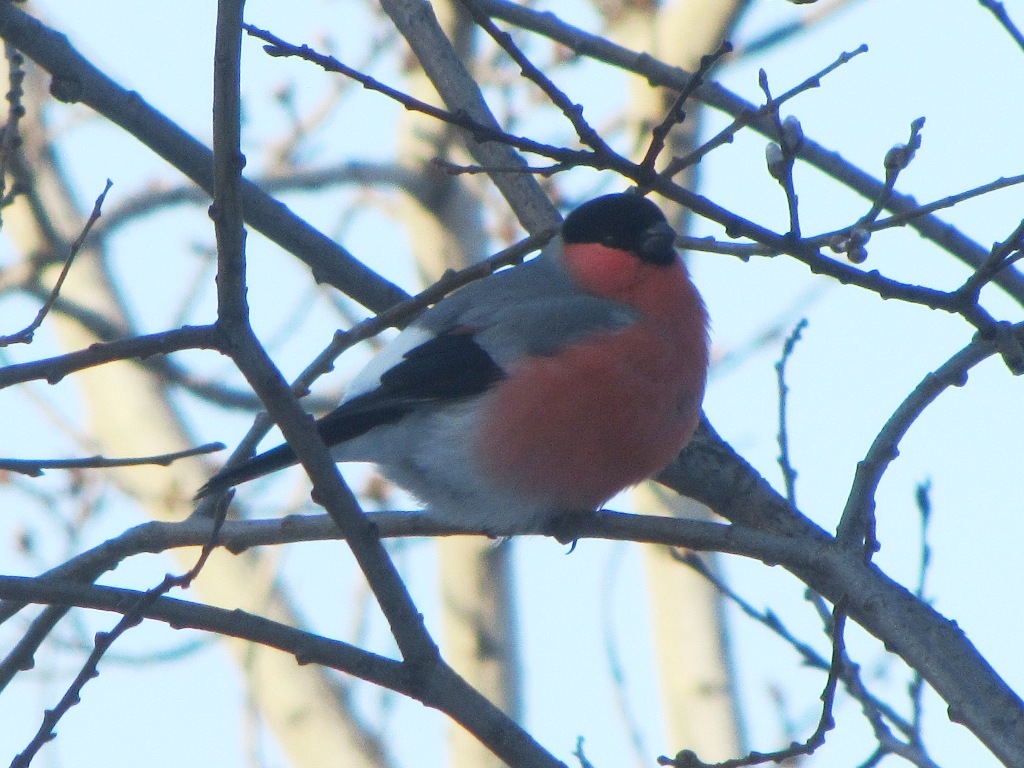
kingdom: Animalia
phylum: Chordata
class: Aves
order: Passeriformes
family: Fringillidae
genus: Pyrrhula
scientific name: Pyrrhula pyrrhula
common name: Eurasian bullfinch
